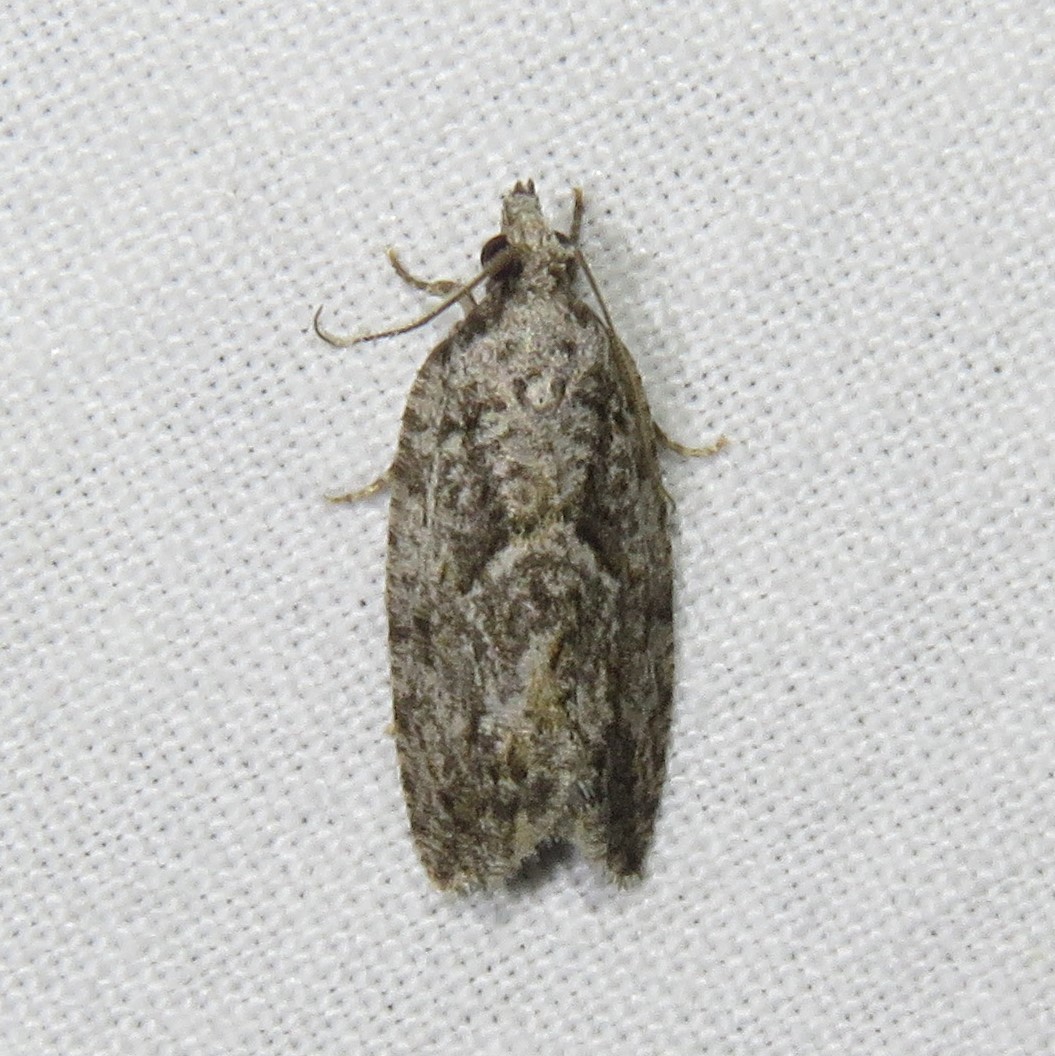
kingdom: Animalia
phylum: Arthropoda
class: Insecta
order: Lepidoptera
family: Tortricidae
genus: Epinotia
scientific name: Epinotia nonana
